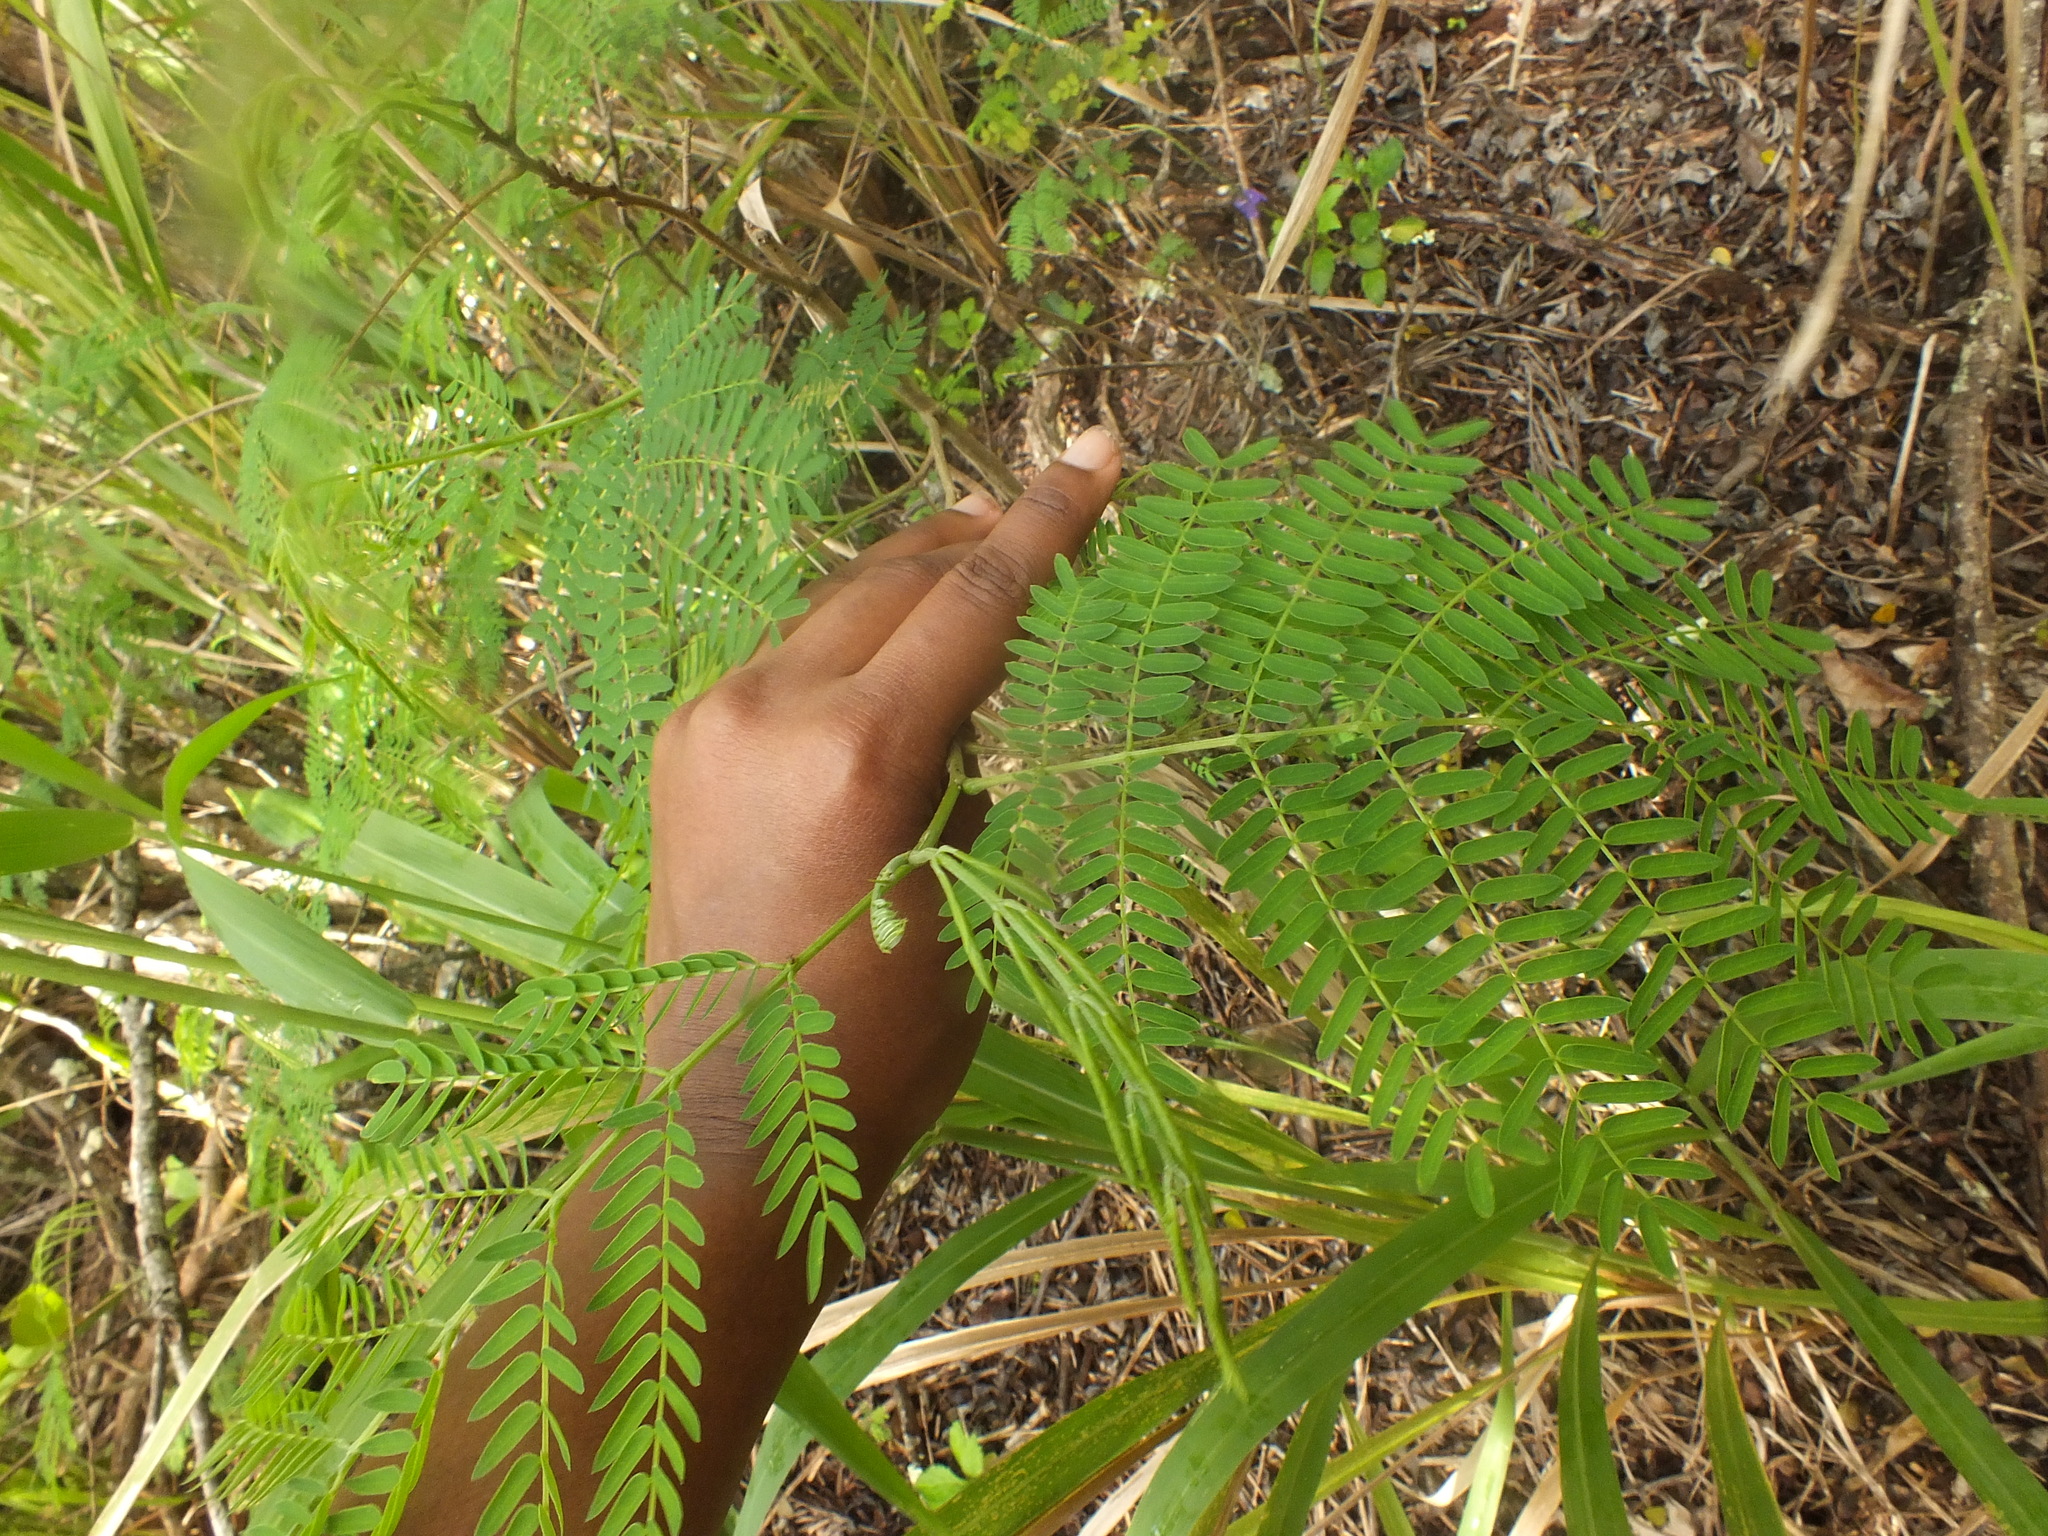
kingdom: Plantae
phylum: Tracheophyta
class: Magnoliopsida
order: Fabales
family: Fabaceae
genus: Leucaena
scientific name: Leucaena leucocephala
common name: White leadtree
